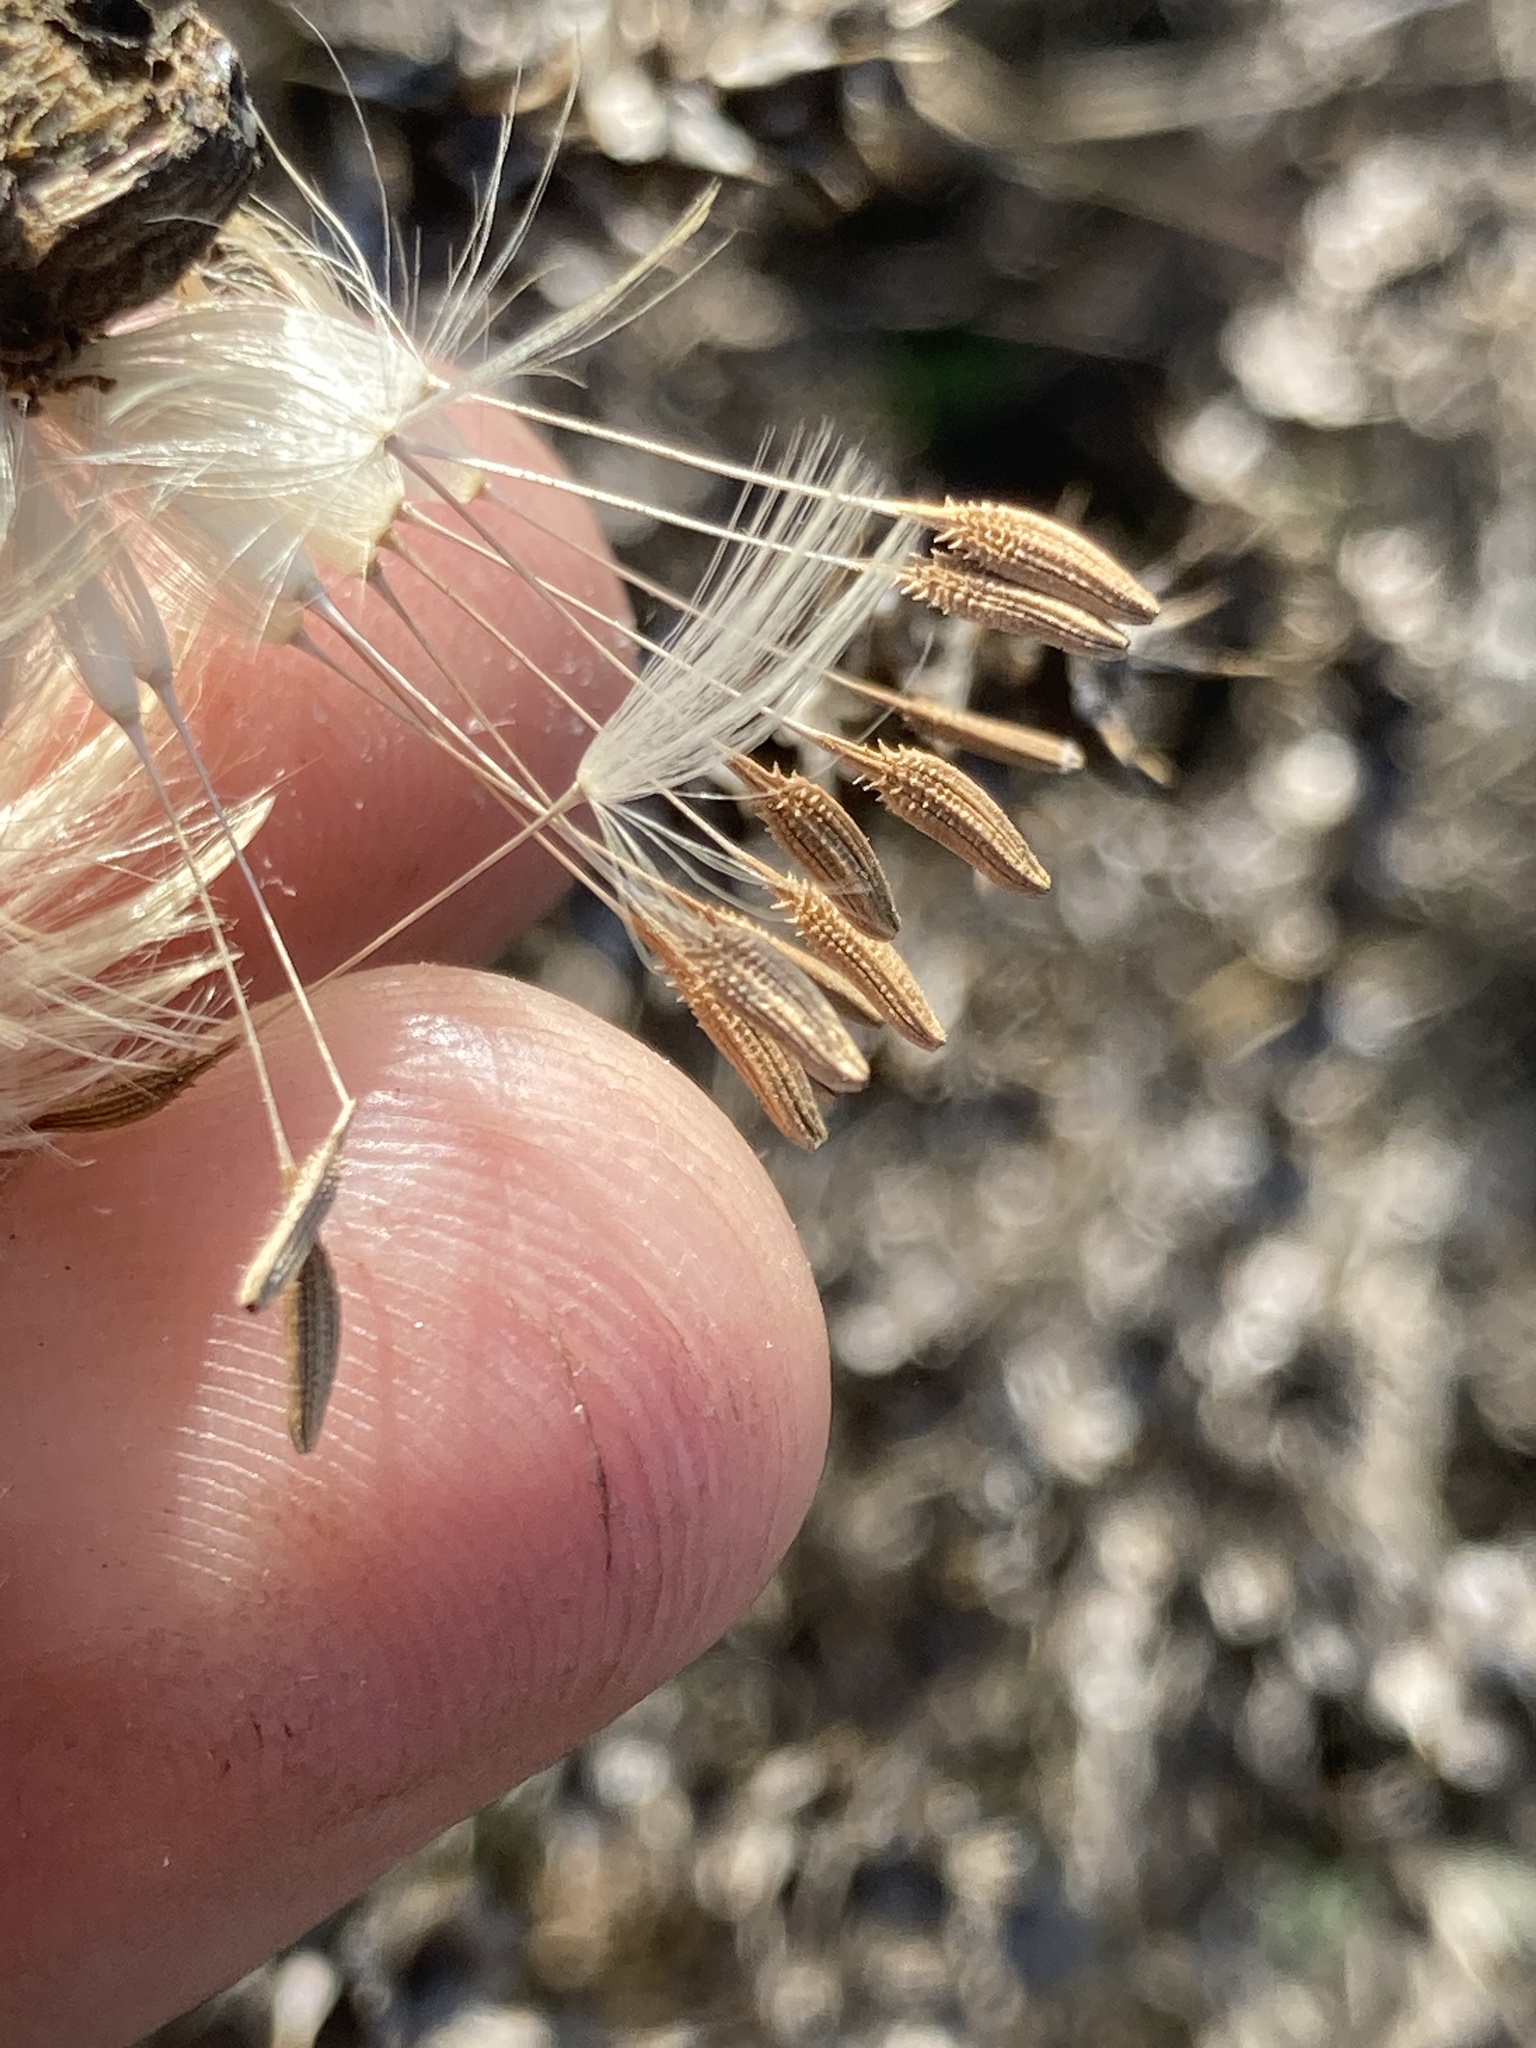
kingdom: Plantae
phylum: Tracheophyta
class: Magnoliopsida
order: Asterales
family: Asteraceae
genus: Taraxacum
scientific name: Taraxacum officinale
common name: Common dandelion
